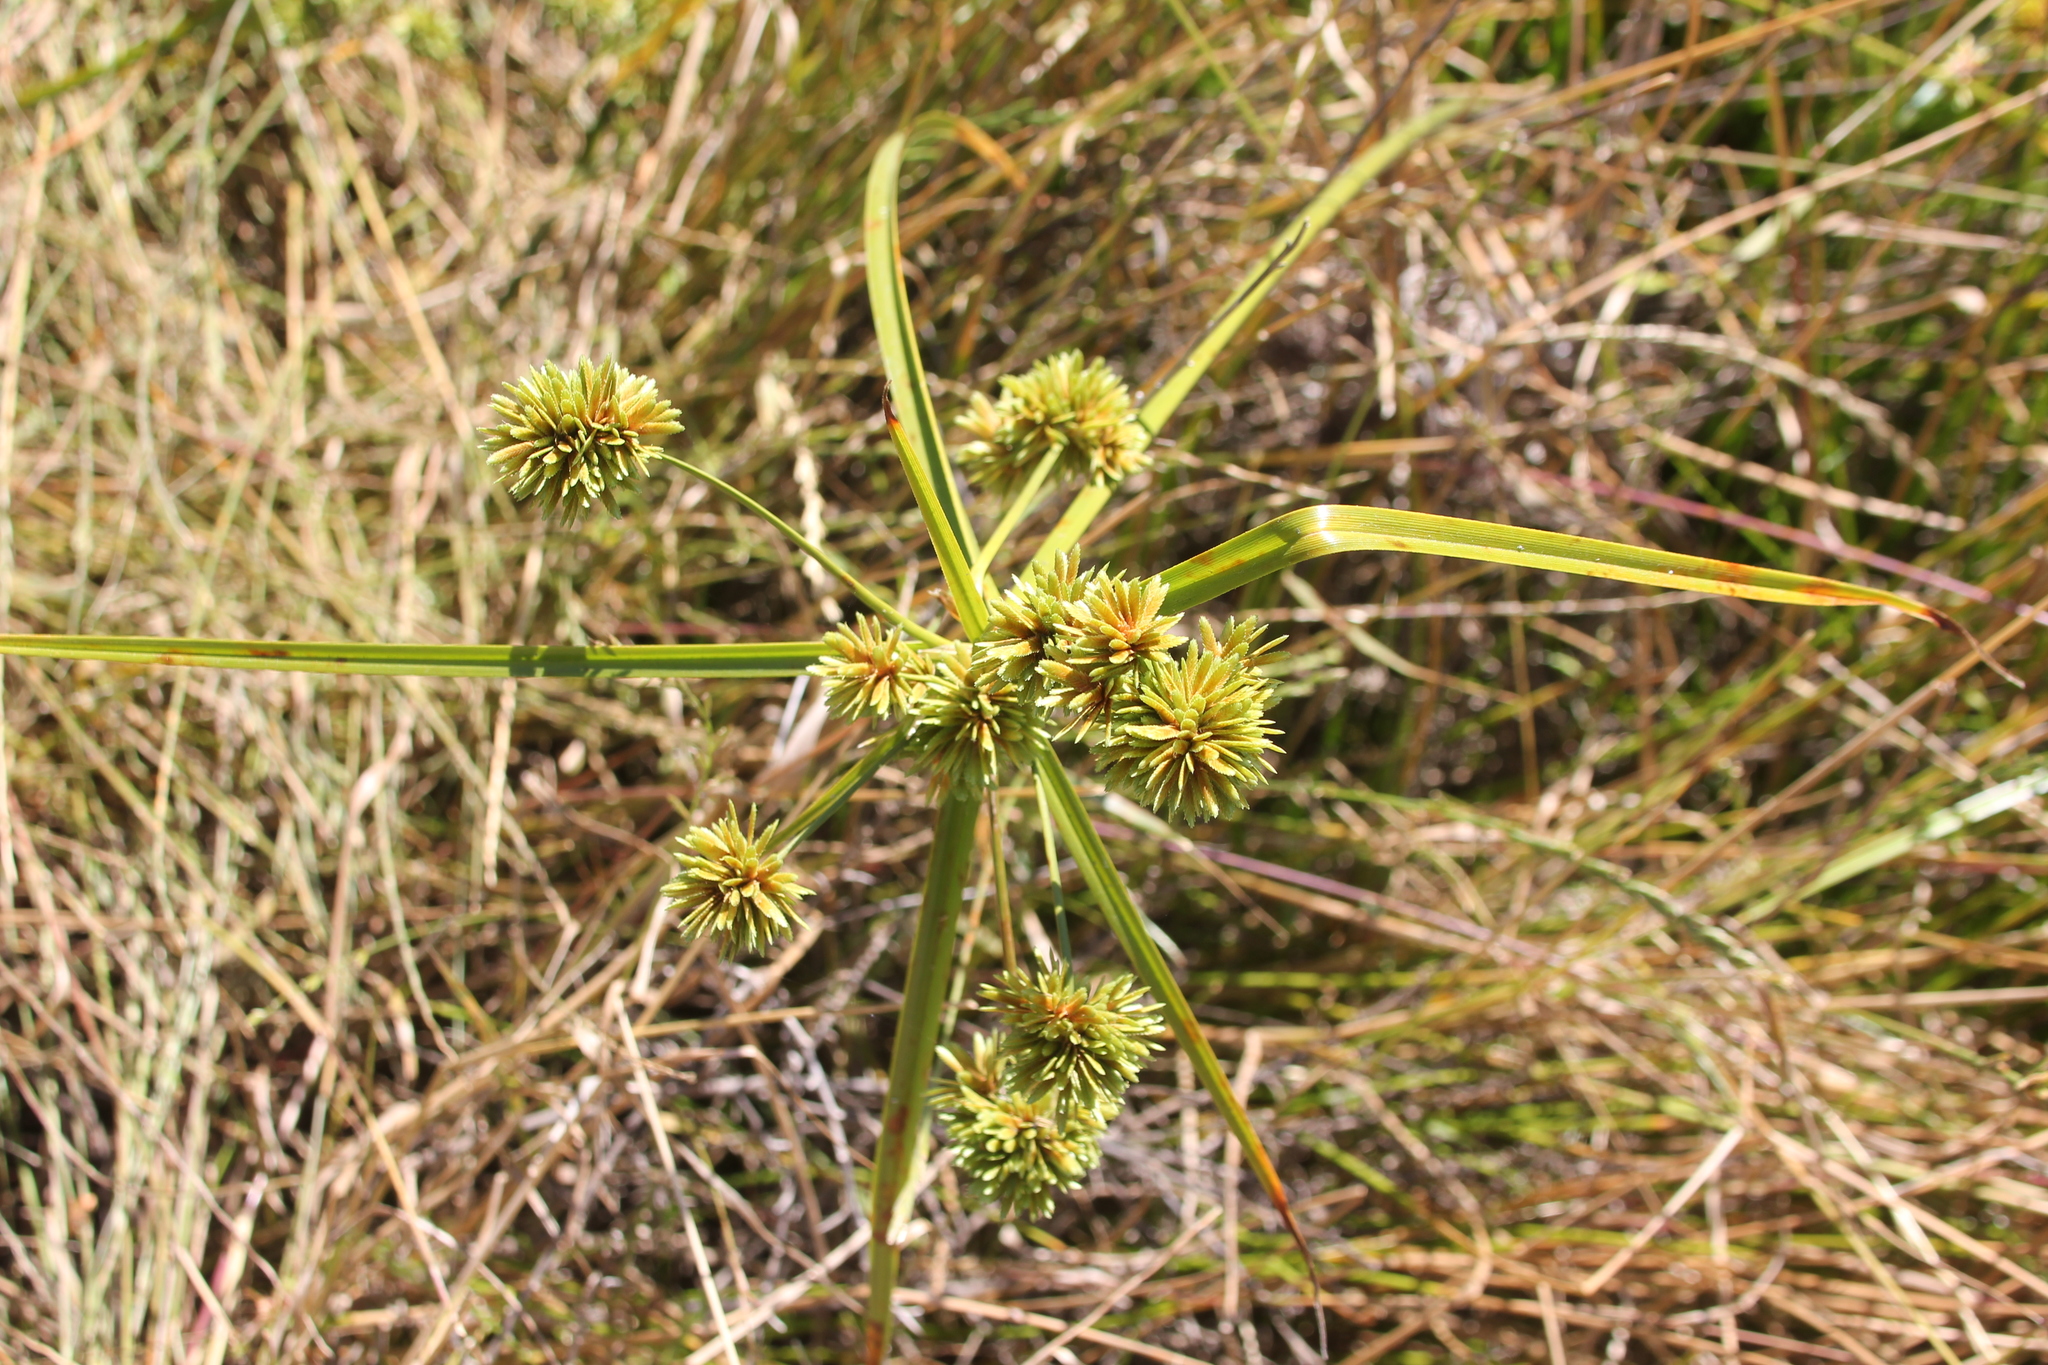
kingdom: Plantae
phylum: Tracheophyta
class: Liliopsida
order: Poales
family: Cyperaceae
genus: Cyperus
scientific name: Cyperus eragrostis
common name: Tall flatsedge
